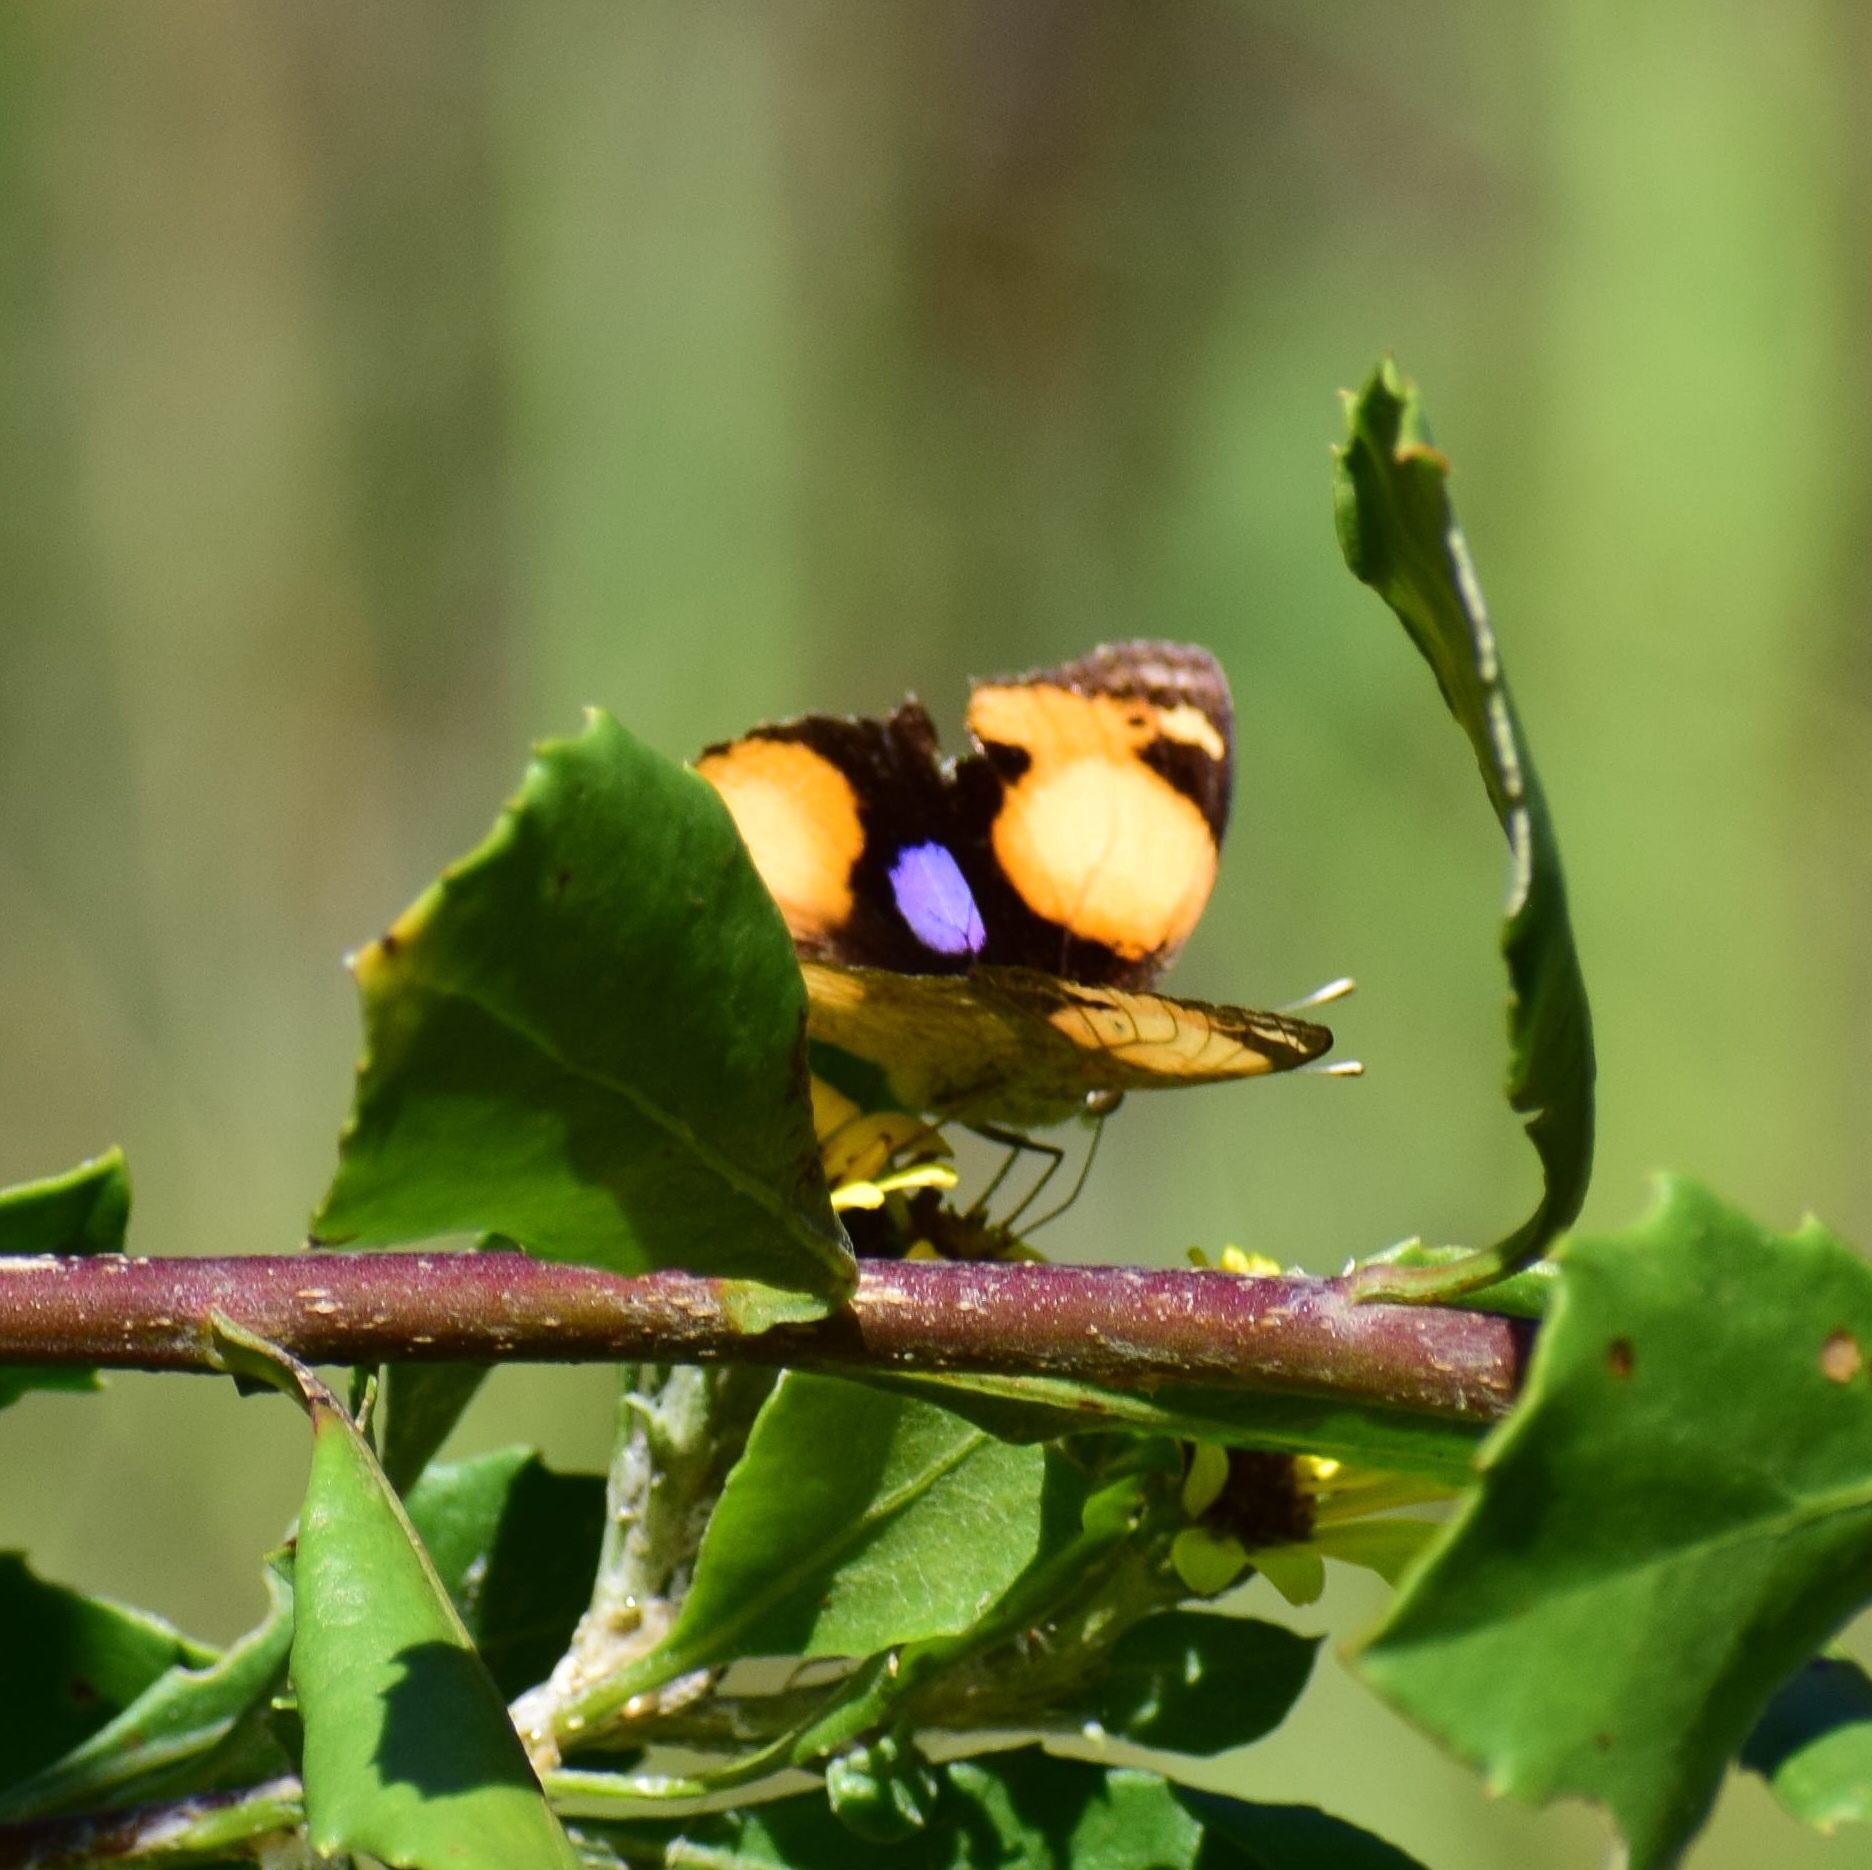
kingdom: Animalia
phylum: Arthropoda
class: Insecta
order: Lepidoptera
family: Nymphalidae
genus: Junonia
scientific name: Junonia hierta
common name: Yellow pansy
